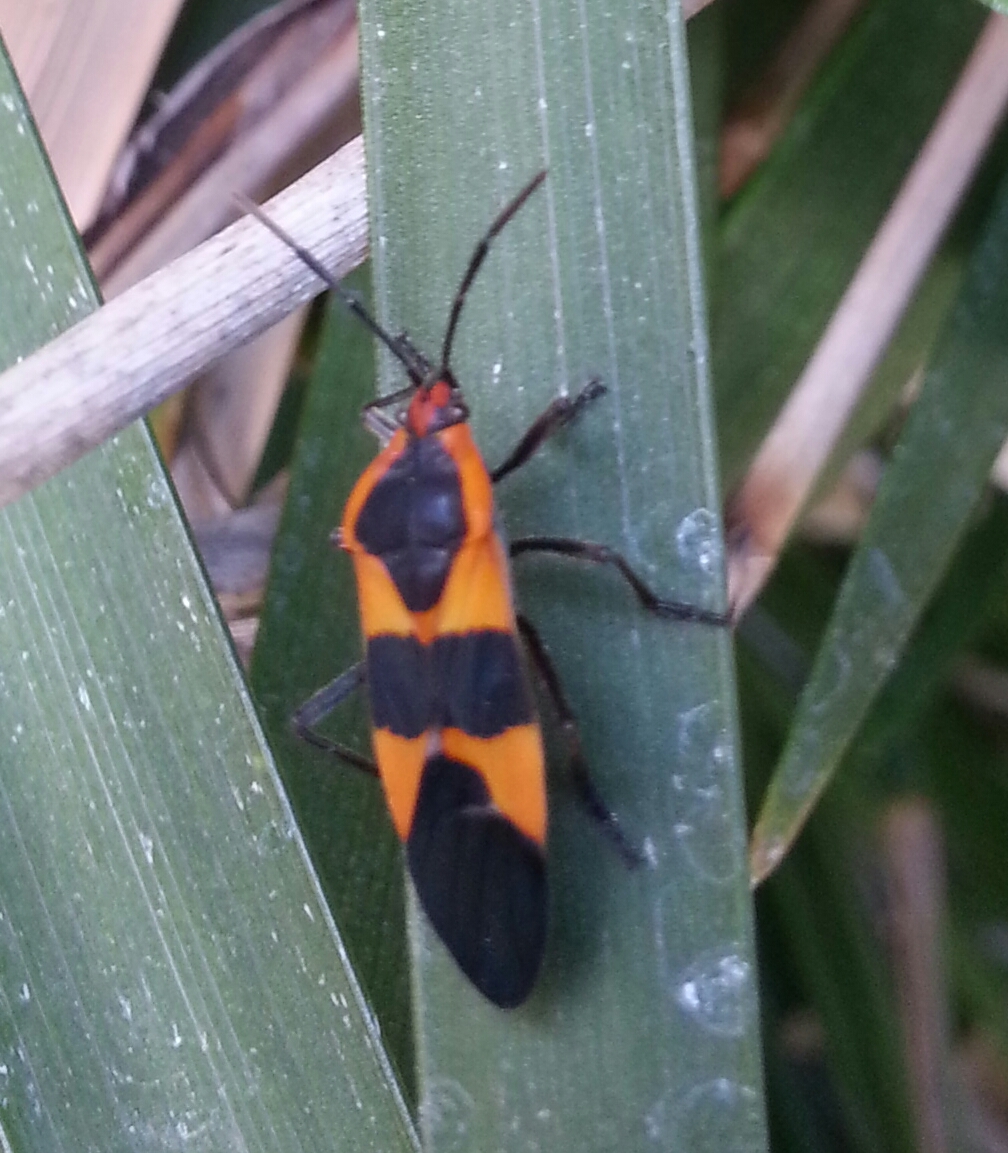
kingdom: Animalia
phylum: Arthropoda
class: Insecta
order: Hemiptera
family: Lygaeidae
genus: Oncopeltus
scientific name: Oncopeltus fasciatus
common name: Large milkweed bug
